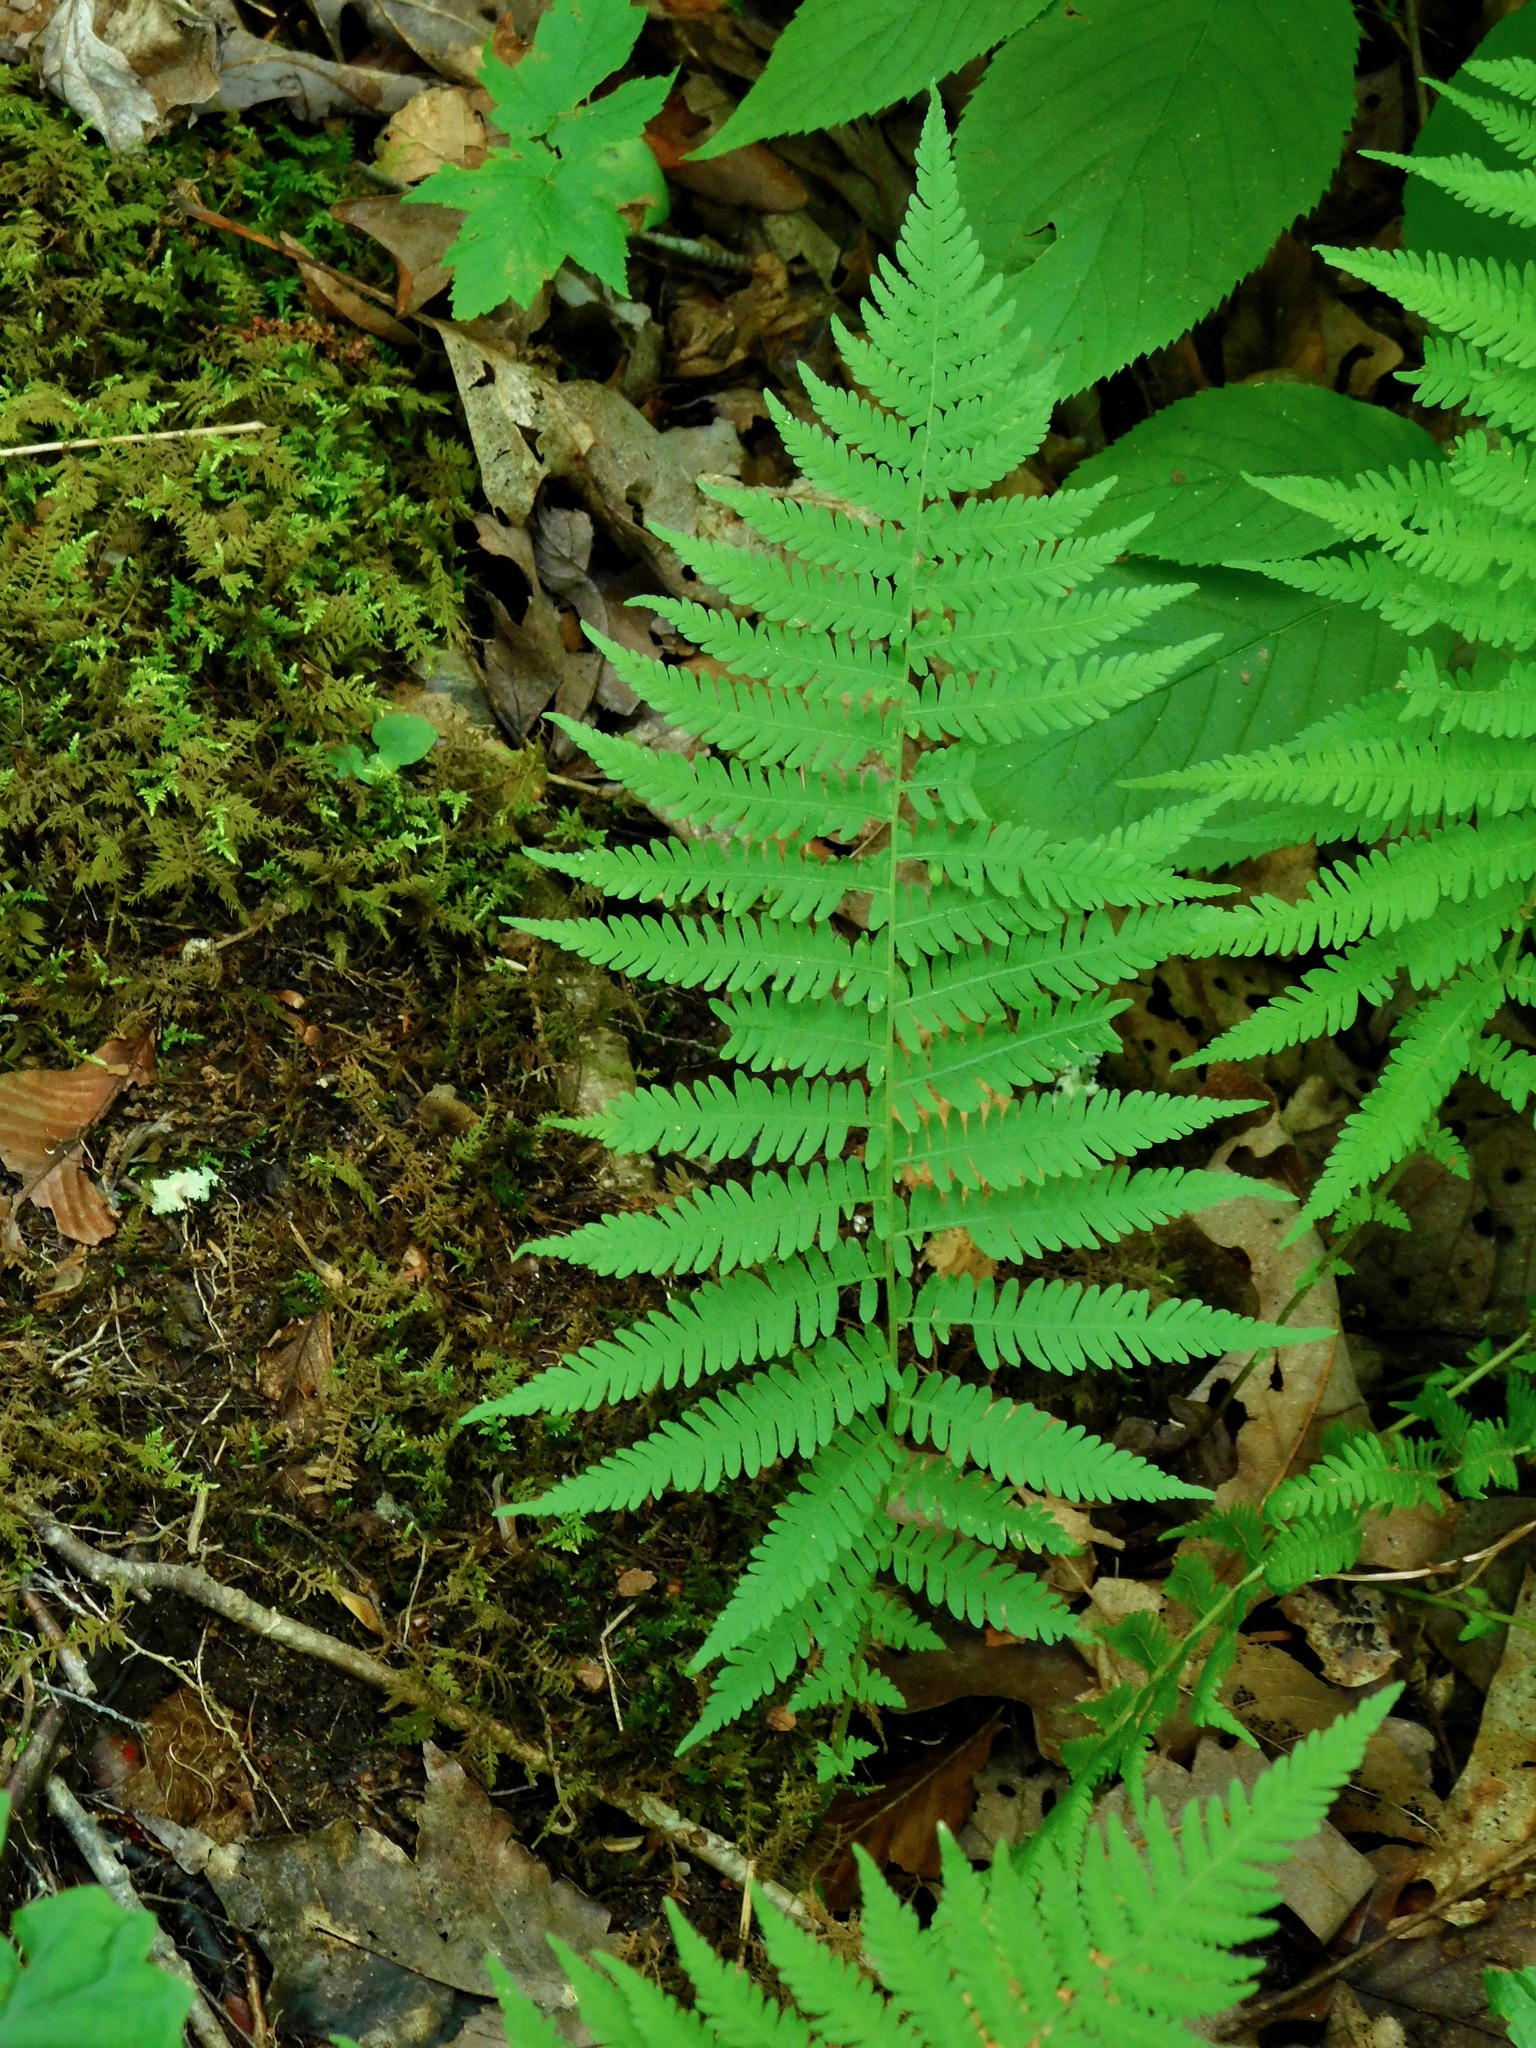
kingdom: Plantae
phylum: Tracheophyta
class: Polypodiopsida
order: Polypodiales
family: Thelypteridaceae
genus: Amauropelta
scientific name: Amauropelta noveboracensis
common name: New york fern
